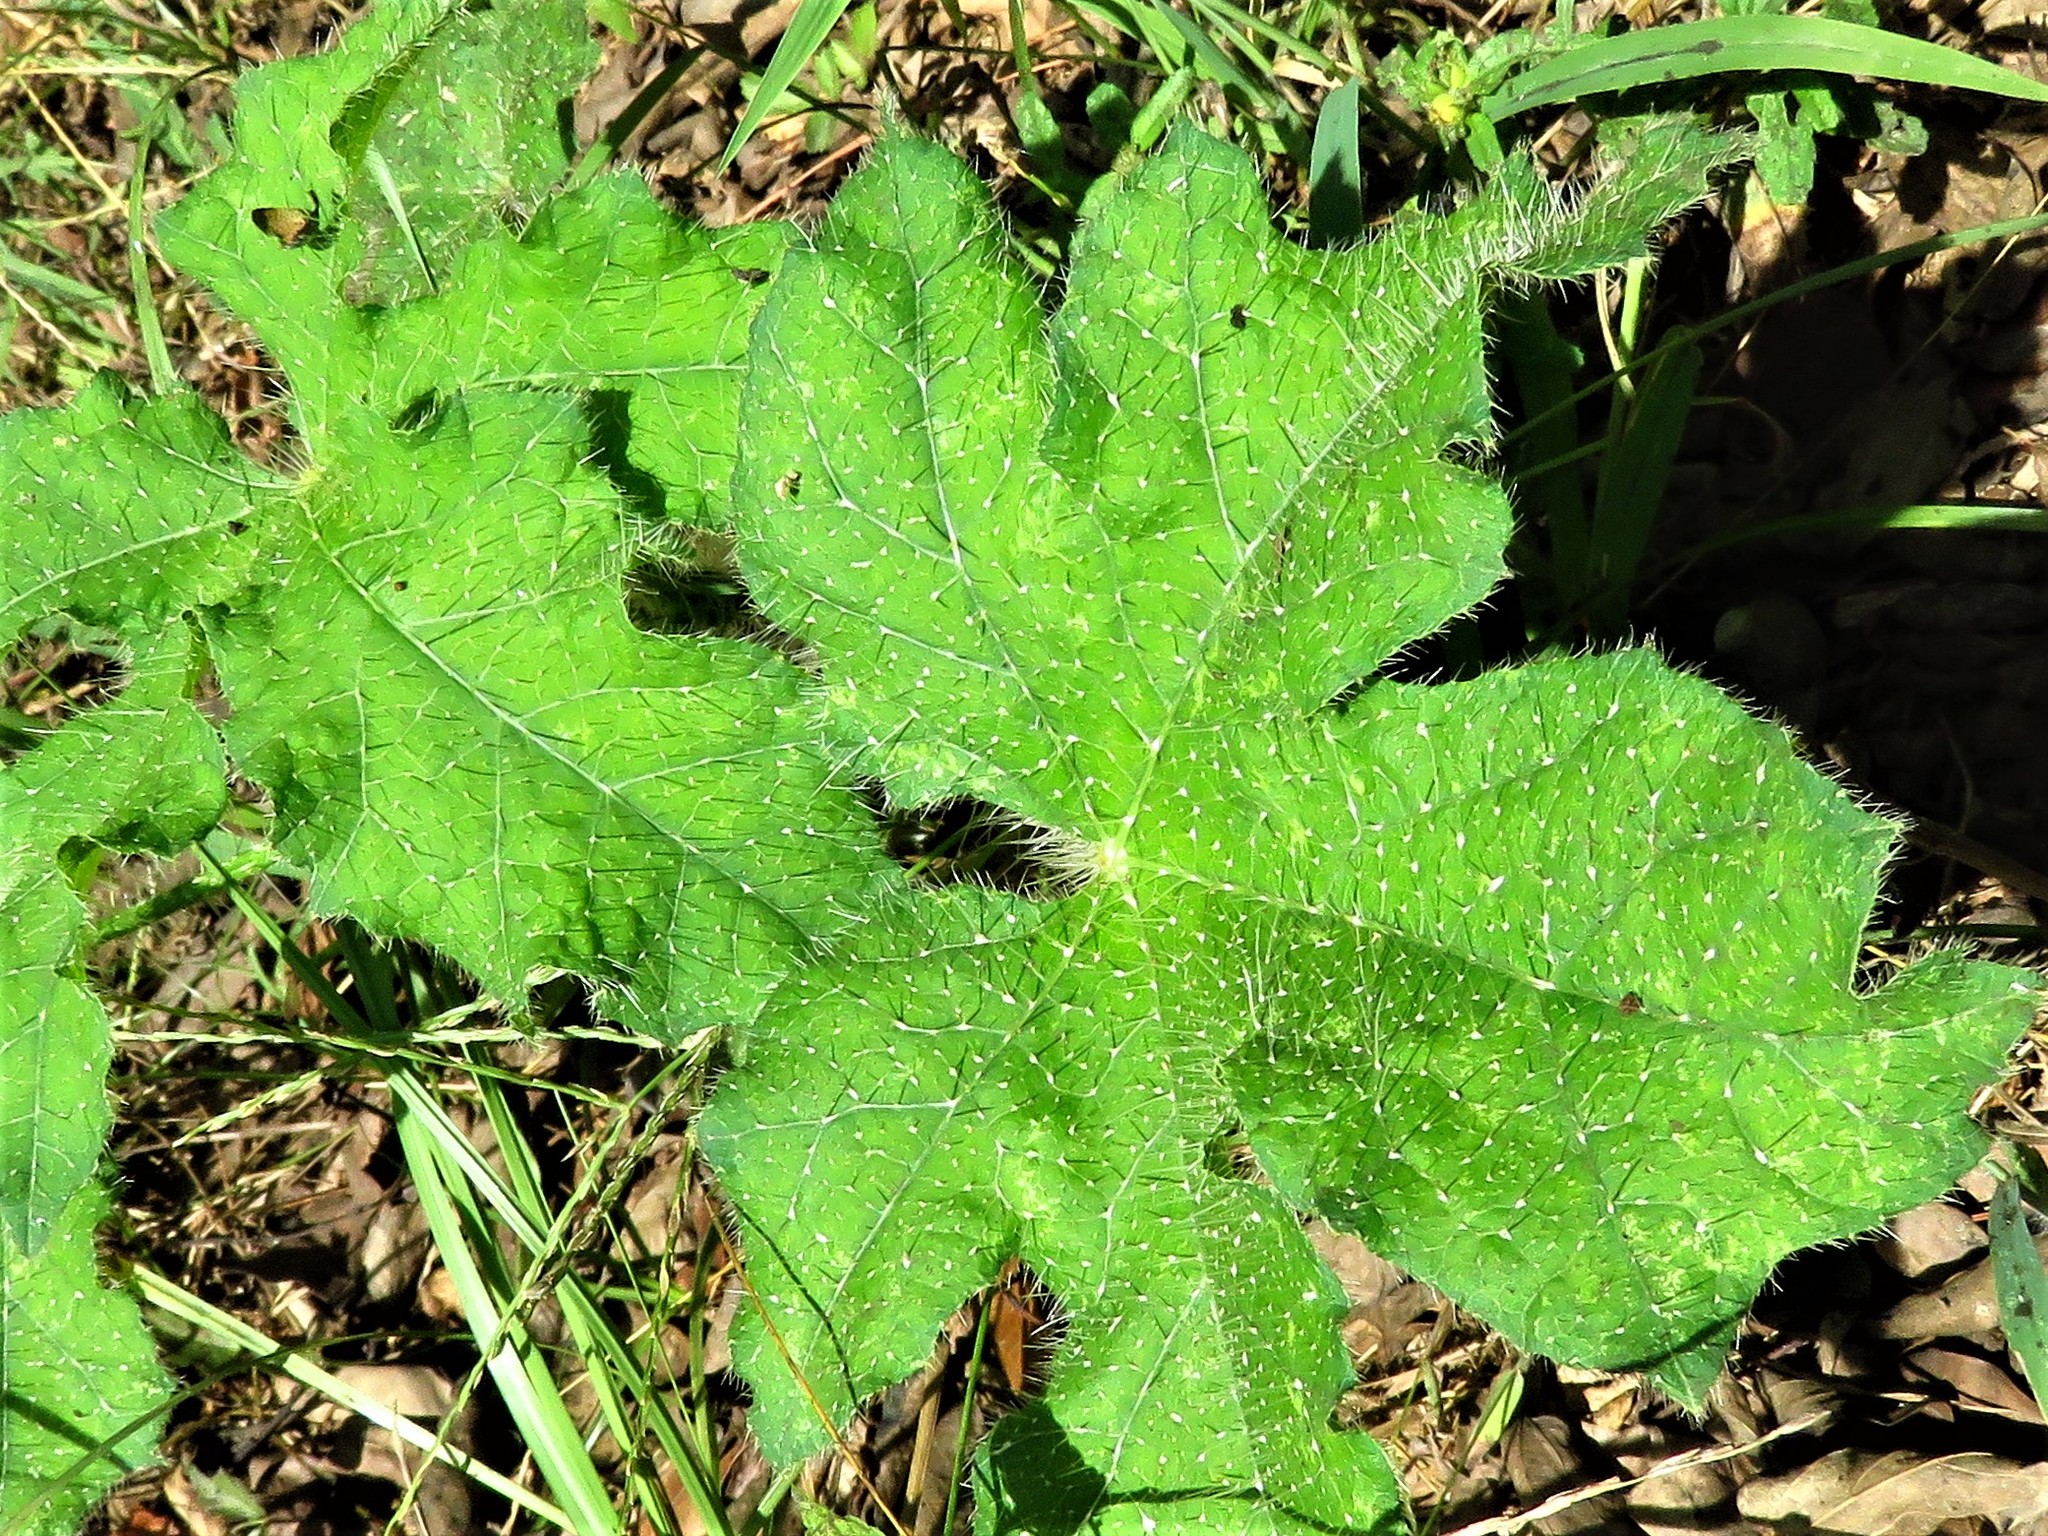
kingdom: Plantae
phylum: Tracheophyta
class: Magnoliopsida
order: Malpighiales
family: Euphorbiaceae
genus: Cnidoscolus
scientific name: Cnidoscolus texanus
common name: Texas bull-nettle
